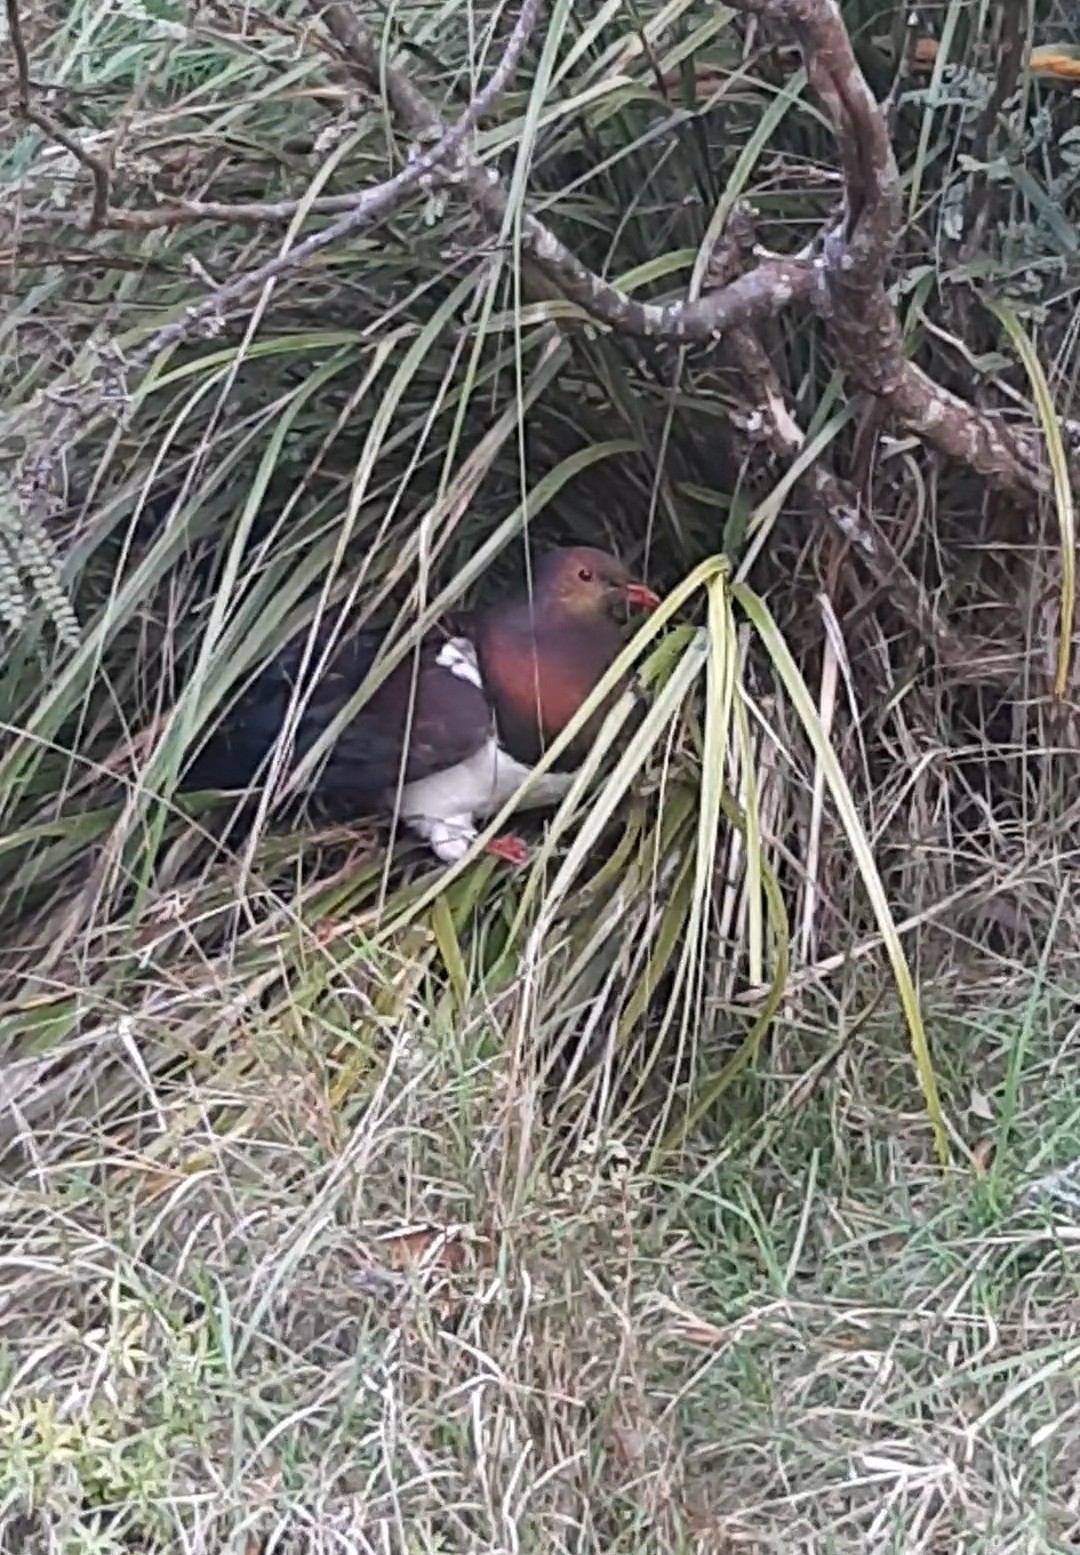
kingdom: Animalia
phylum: Chordata
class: Aves
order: Columbiformes
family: Columbidae
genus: Hemiphaga
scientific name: Hemiphaga novaeseelandiae
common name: New zealand pigeon
